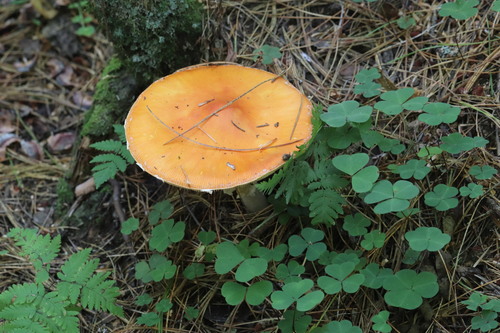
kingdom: Fungi
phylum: Basidiomycota
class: Agaricomycetes
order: Agaricales
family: Amanitaceae
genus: Amanita
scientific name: Amanita muscaria
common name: Fly agaric
